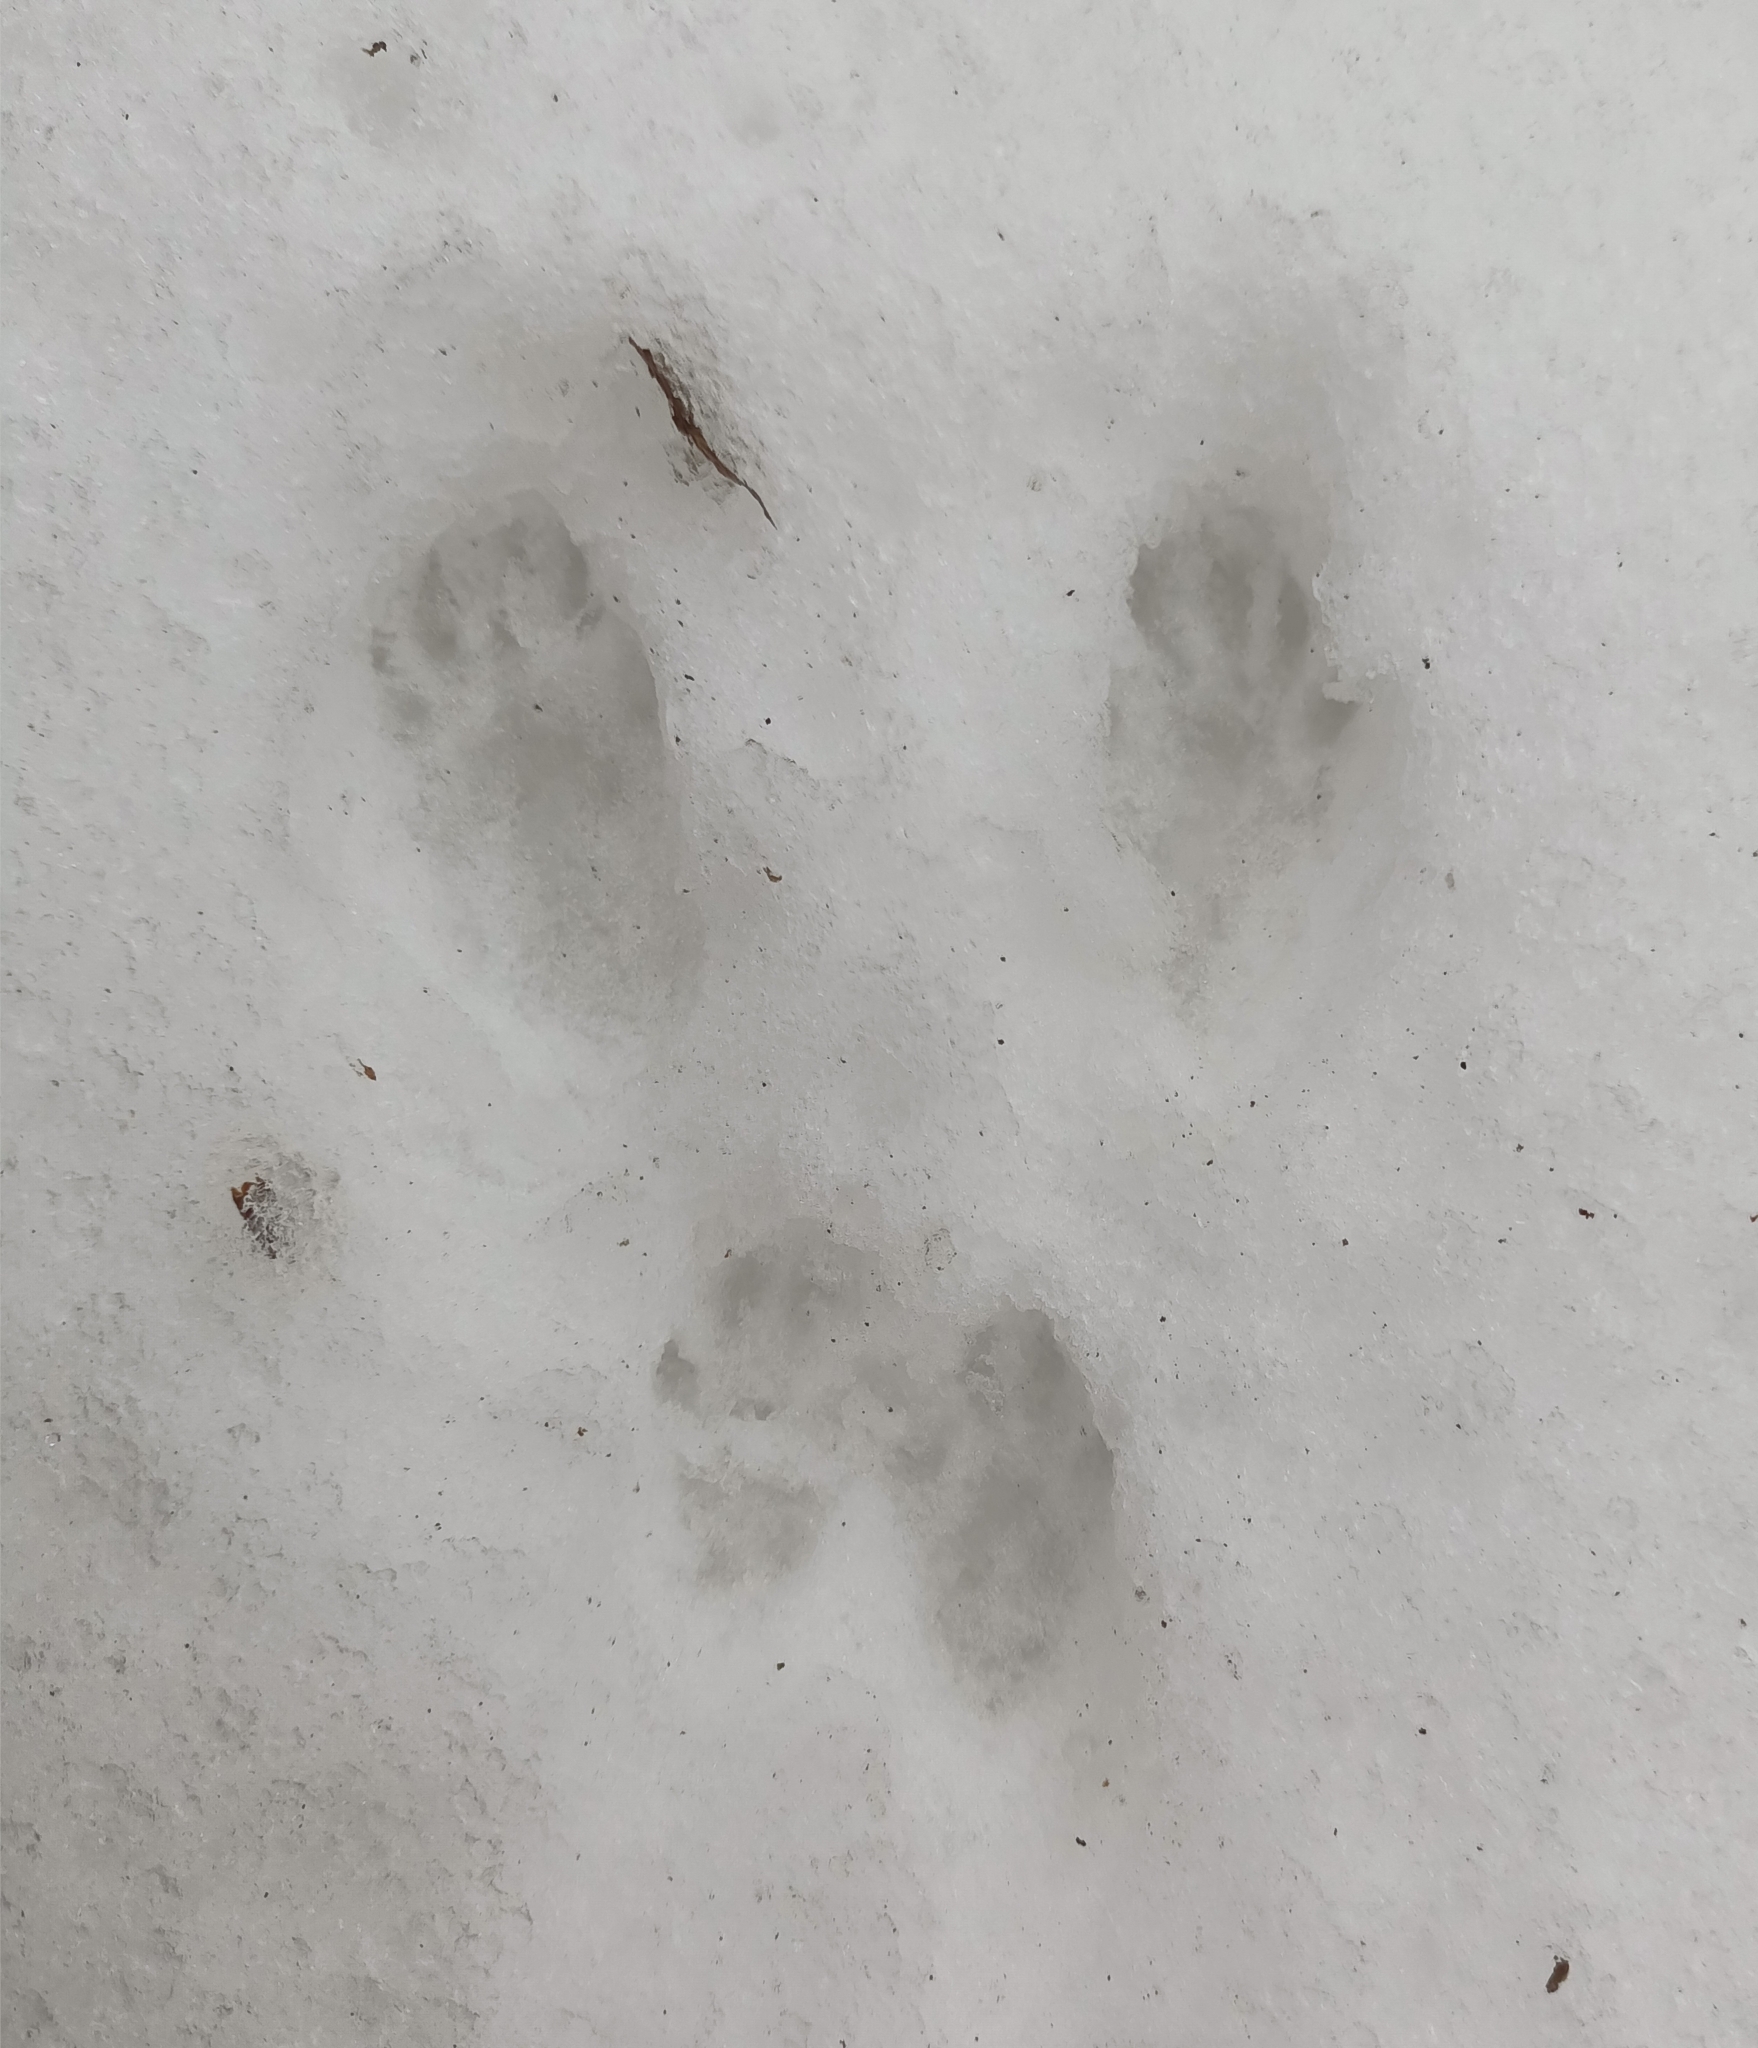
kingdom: Animalia
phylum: Chordata
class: Mammalia
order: Rodentia
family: Sciuridae
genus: Sciurus
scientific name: Sciurus vulgaris
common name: Eurasian red squirrel
